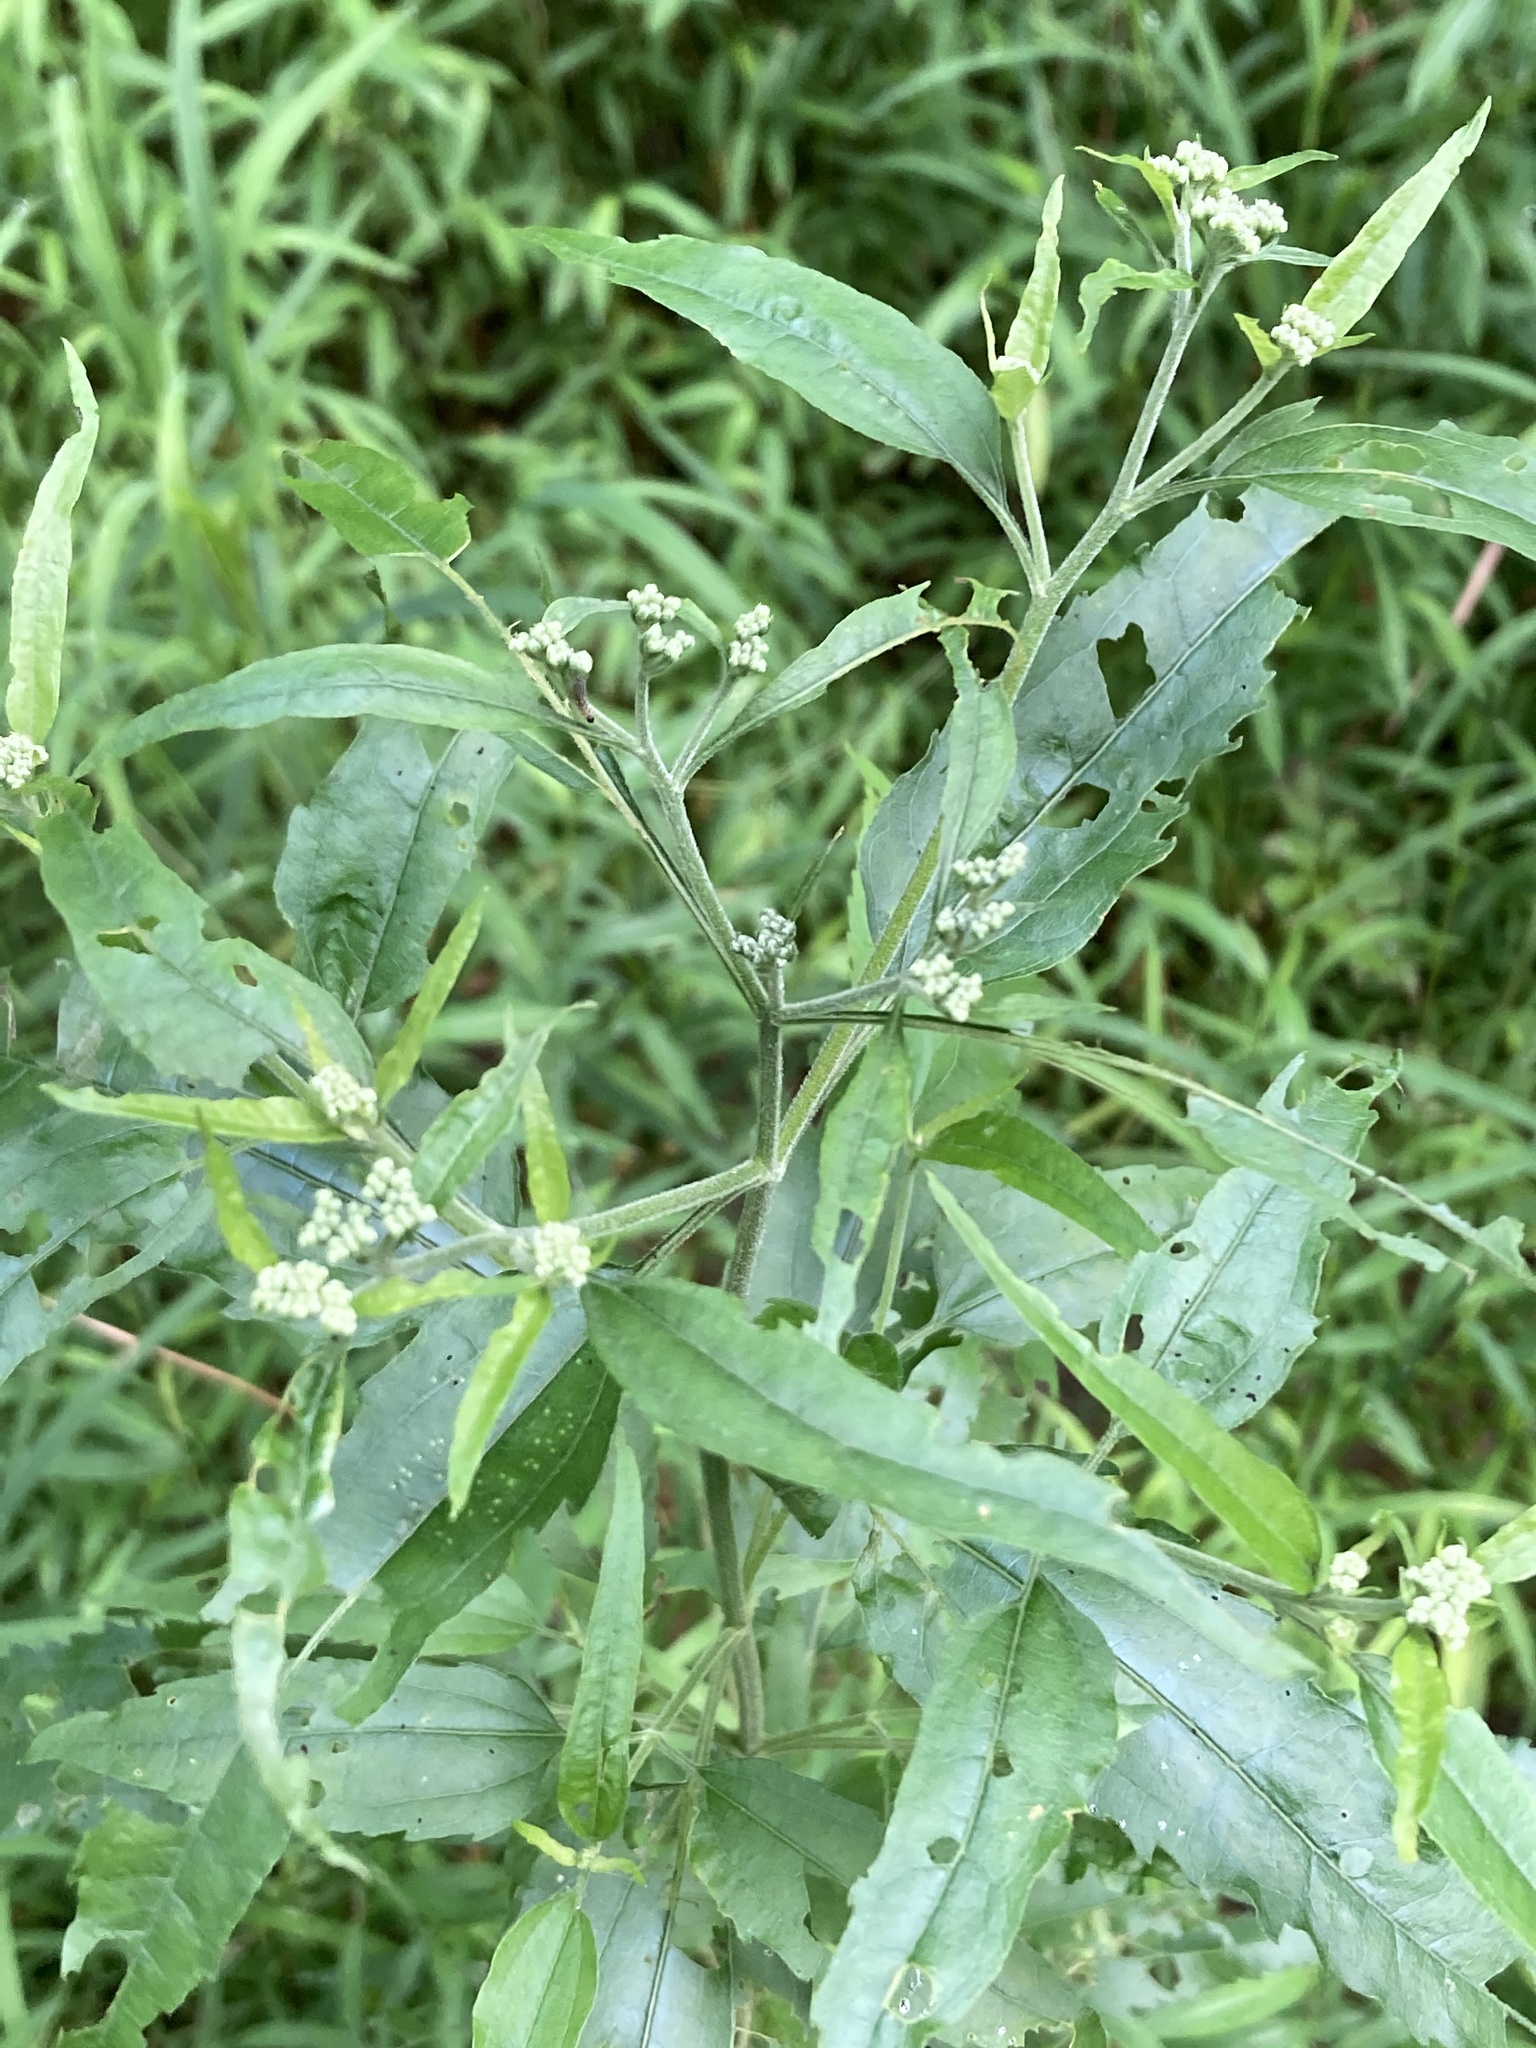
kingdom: Plantae
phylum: Tracheophyta
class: Magnoliopsida
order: Asterales
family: Asteraceae
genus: Eupatorium
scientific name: Eupatorium serotinum
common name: Late boneset
